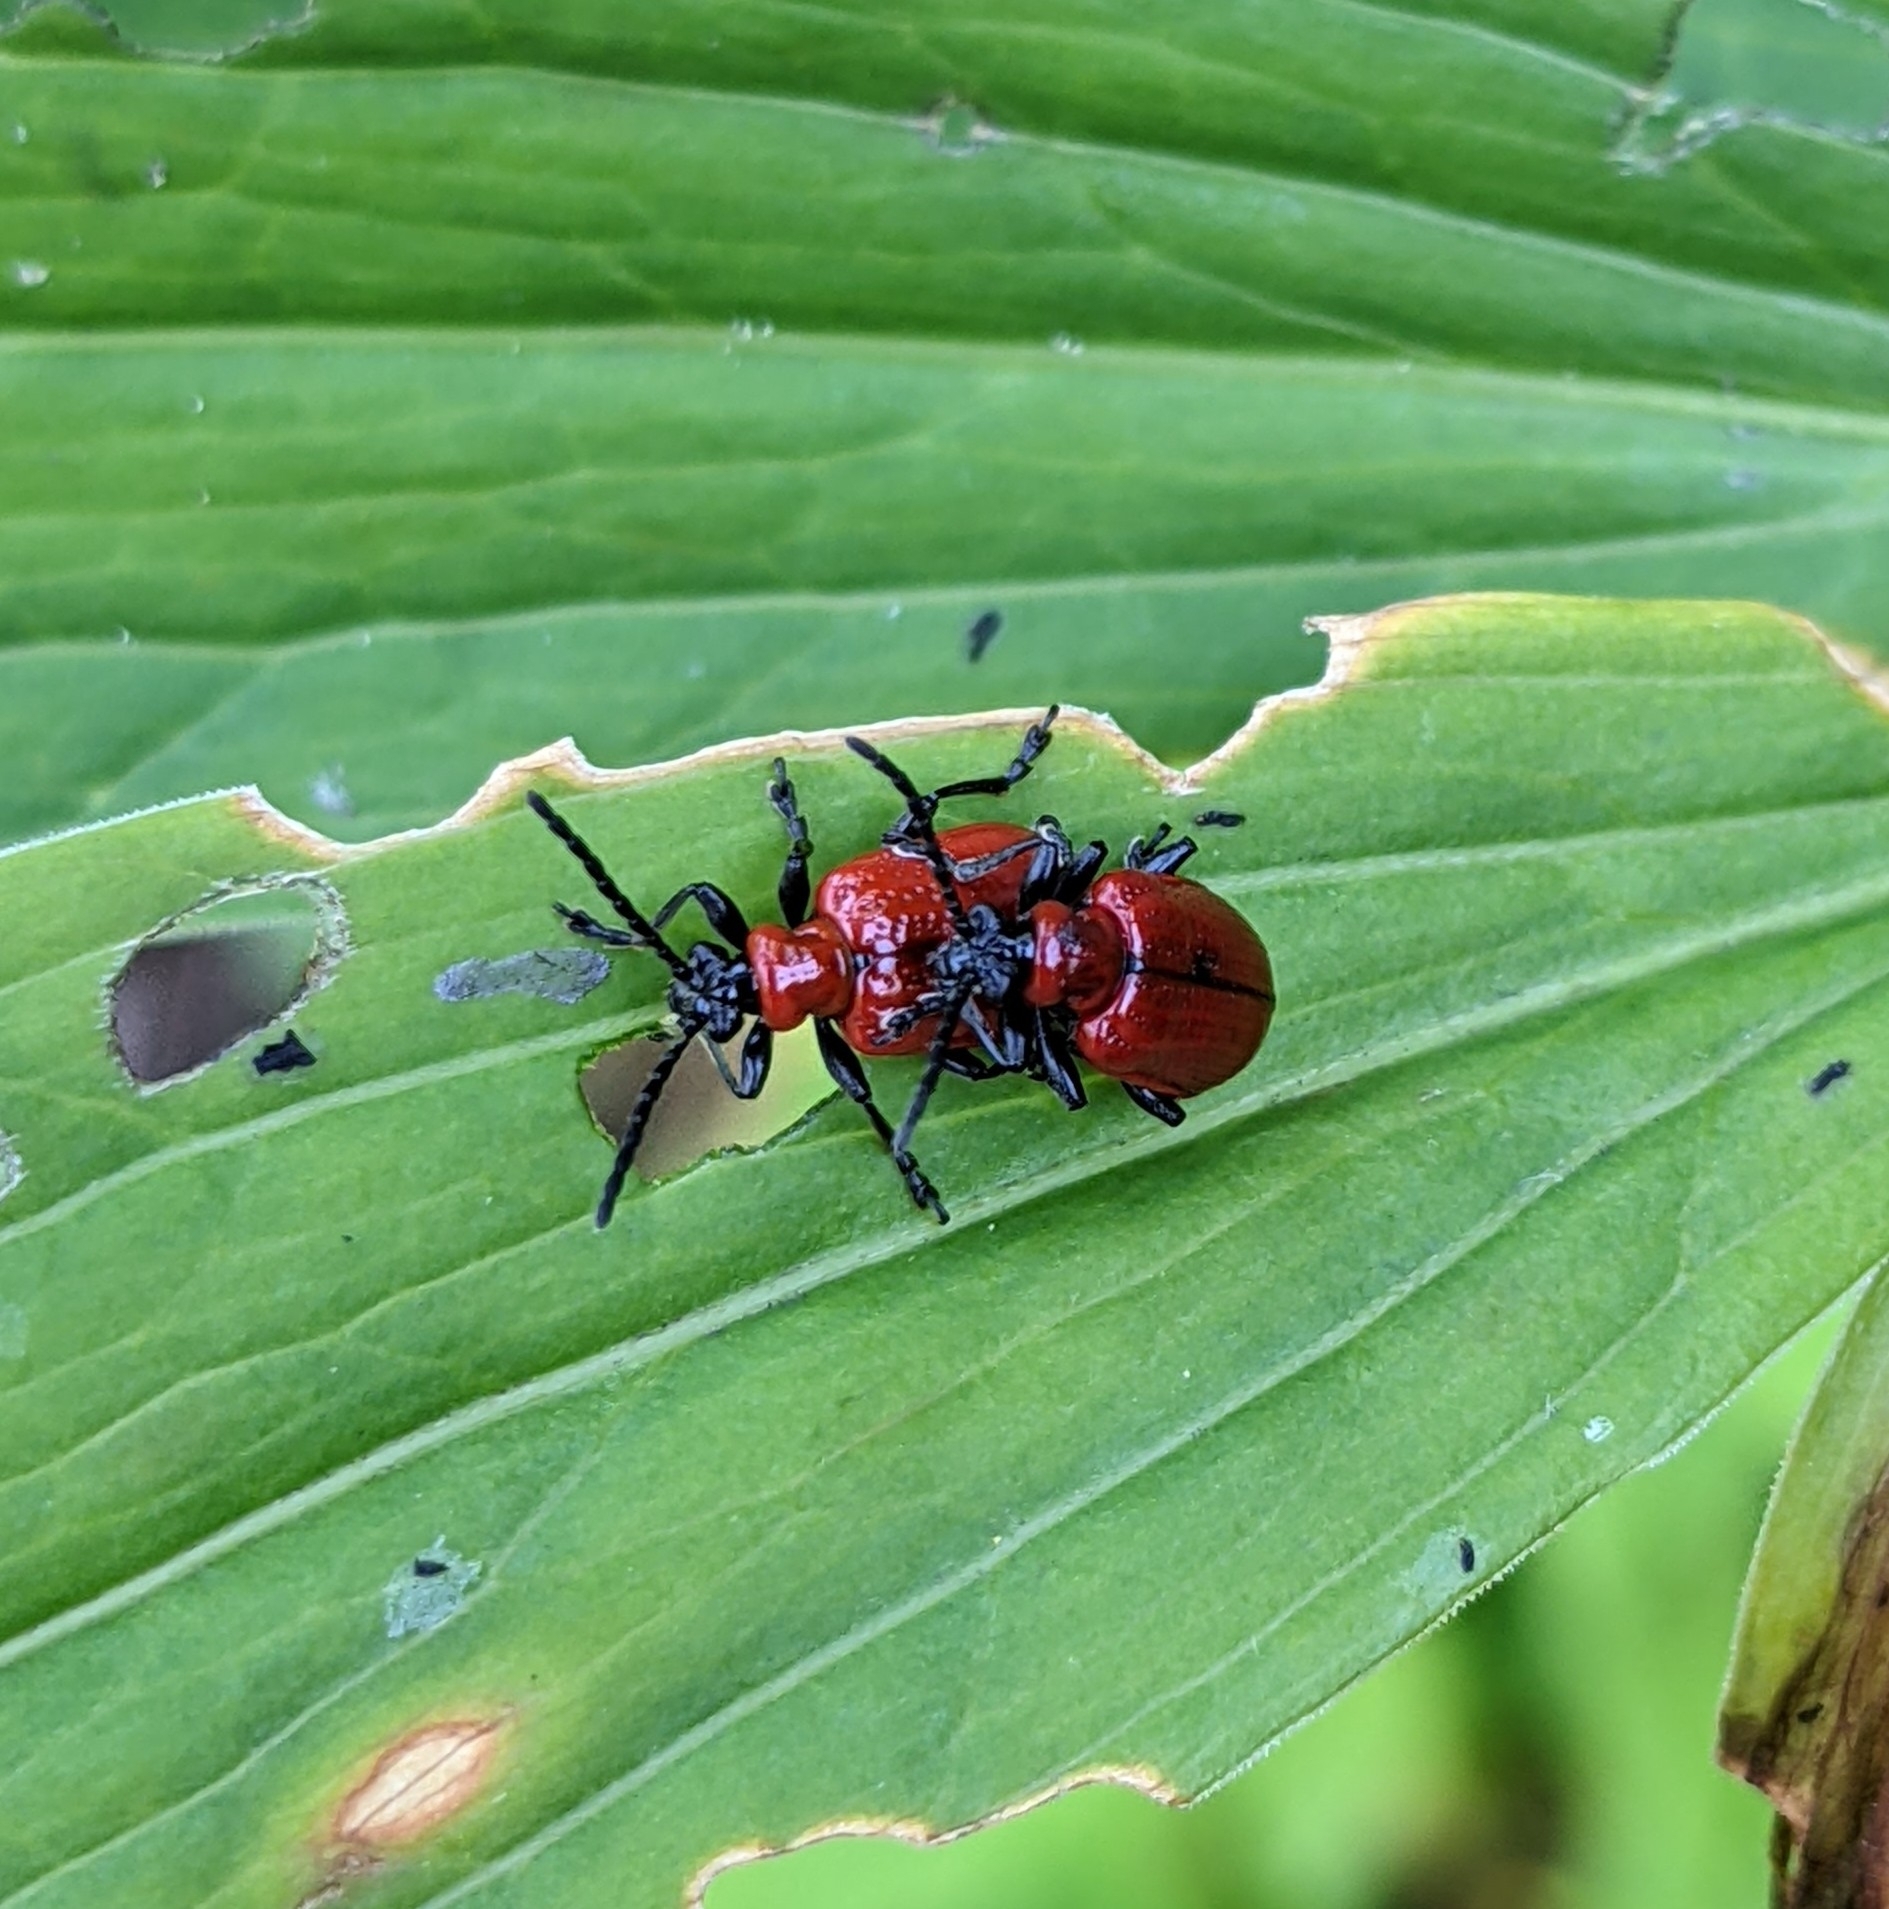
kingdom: Animalia
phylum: Arthropoda
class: Insecta
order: Coleoptera
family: Chrysomelidae
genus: Lilioceris
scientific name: Lilioceris lilii
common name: Lily beetle
